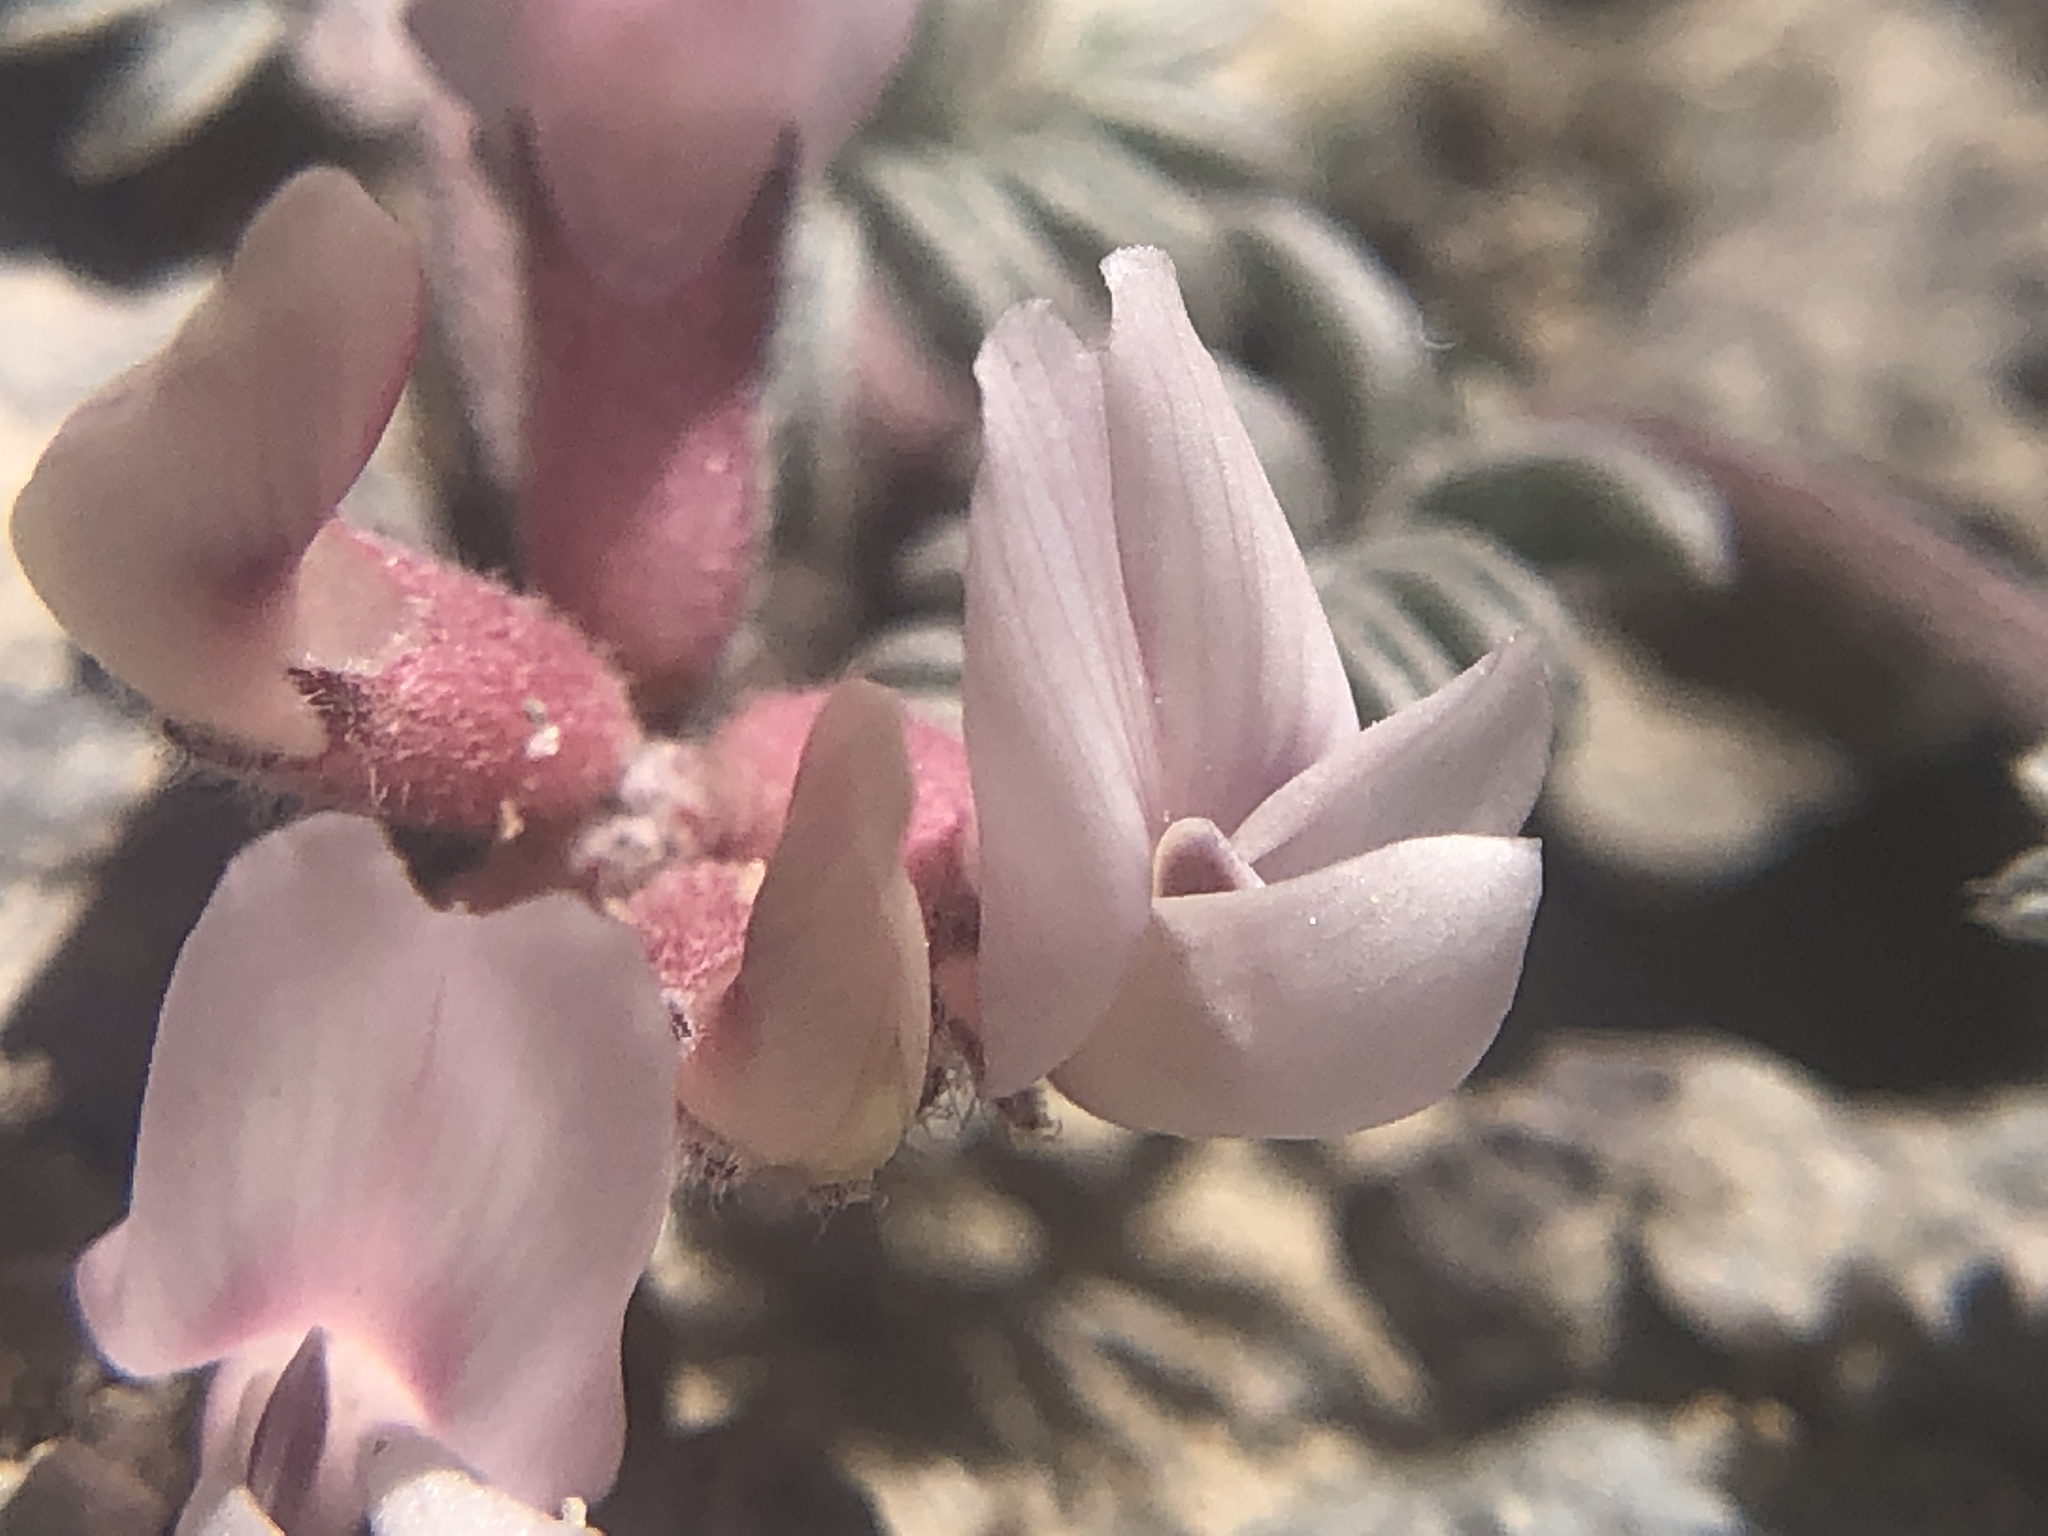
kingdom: Plantae
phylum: Tracheophyta
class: Magnoliopsida
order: Fabales
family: Fabaceae
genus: Astragalus
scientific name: Astragalus monoensis
